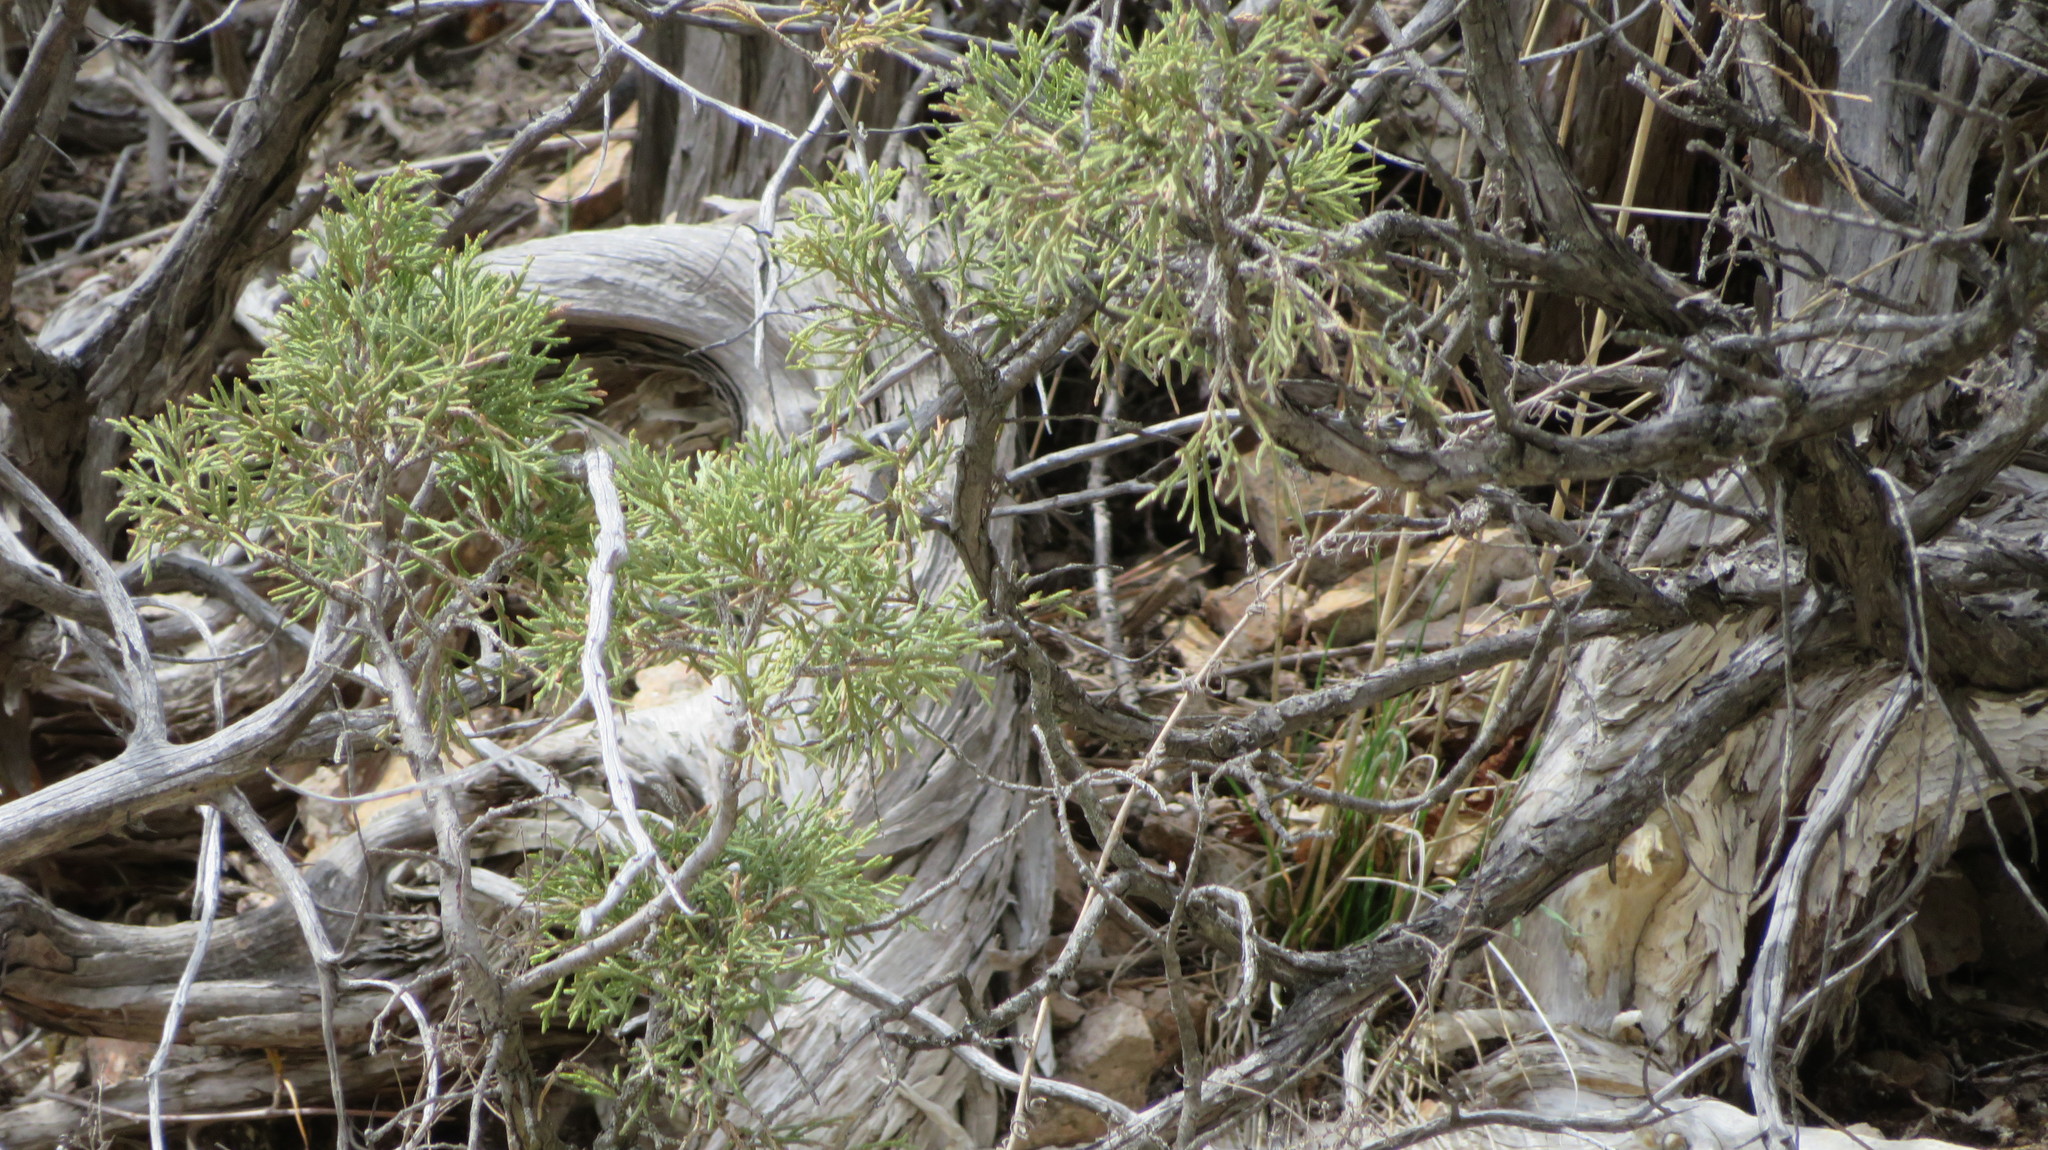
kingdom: Plantae
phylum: Tracheophyta
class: Pinopsida
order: Pinales
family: Cupressaceae
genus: Juniperus
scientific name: Juniperus scopulorum
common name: Rocky mountain juniper
